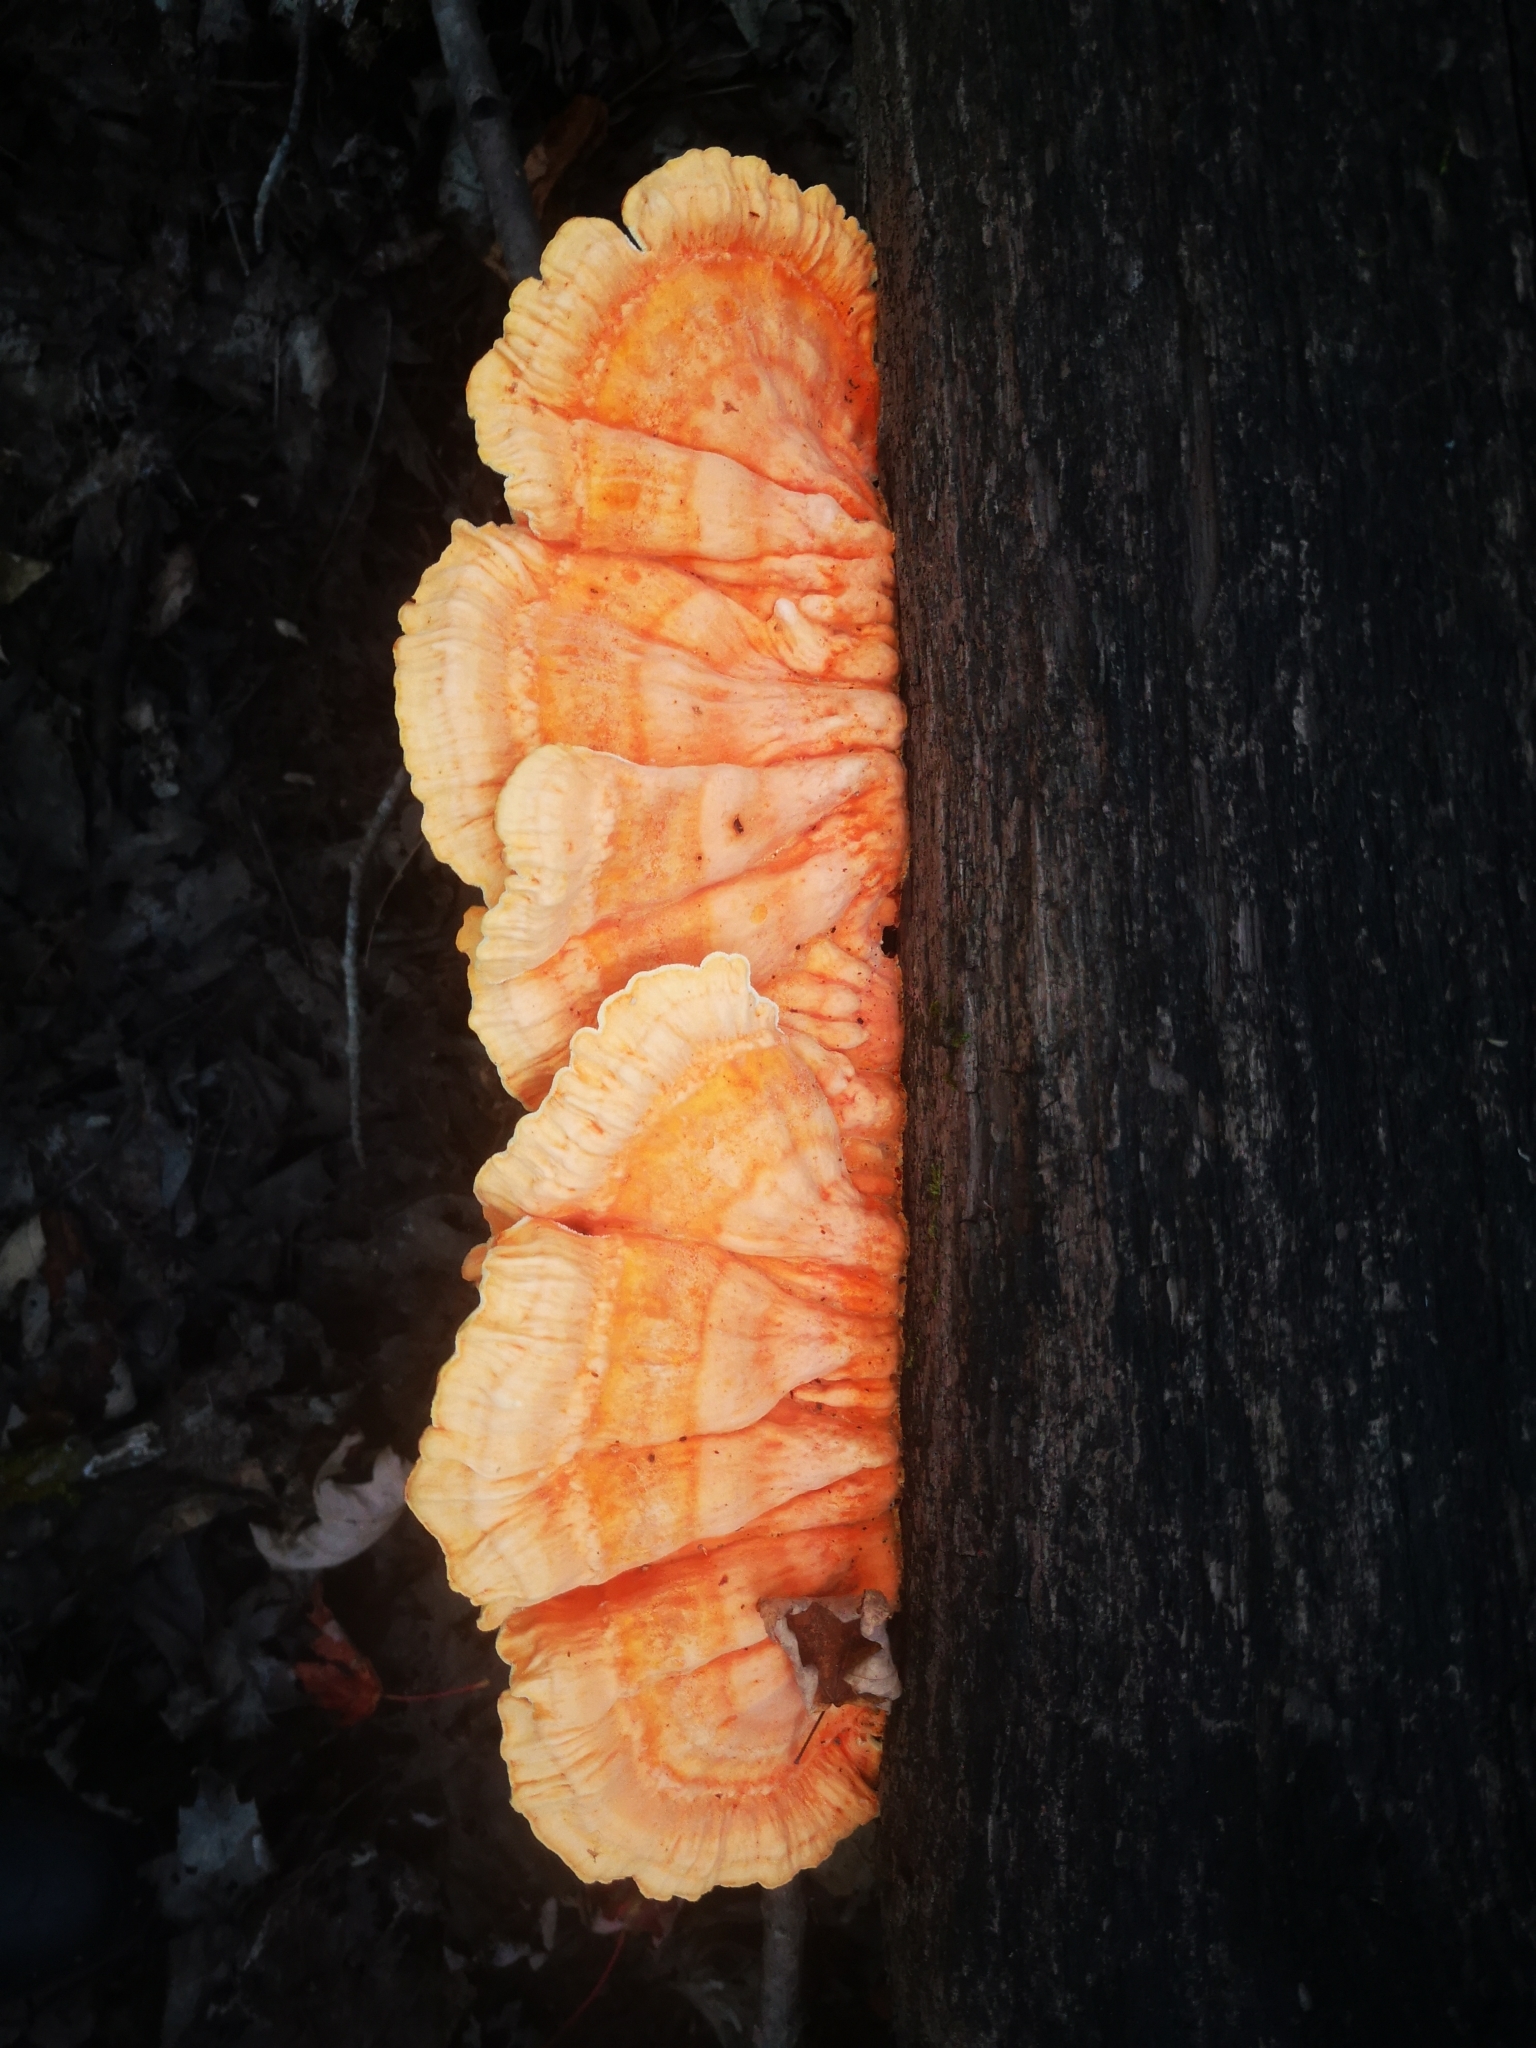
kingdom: Fungi
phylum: Basidiomycota
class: Agaricomycetes
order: Polyporales
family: Laetiporaceae
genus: Laetiporus
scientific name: Laetiporus sulphureus
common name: Chicken of the woods
